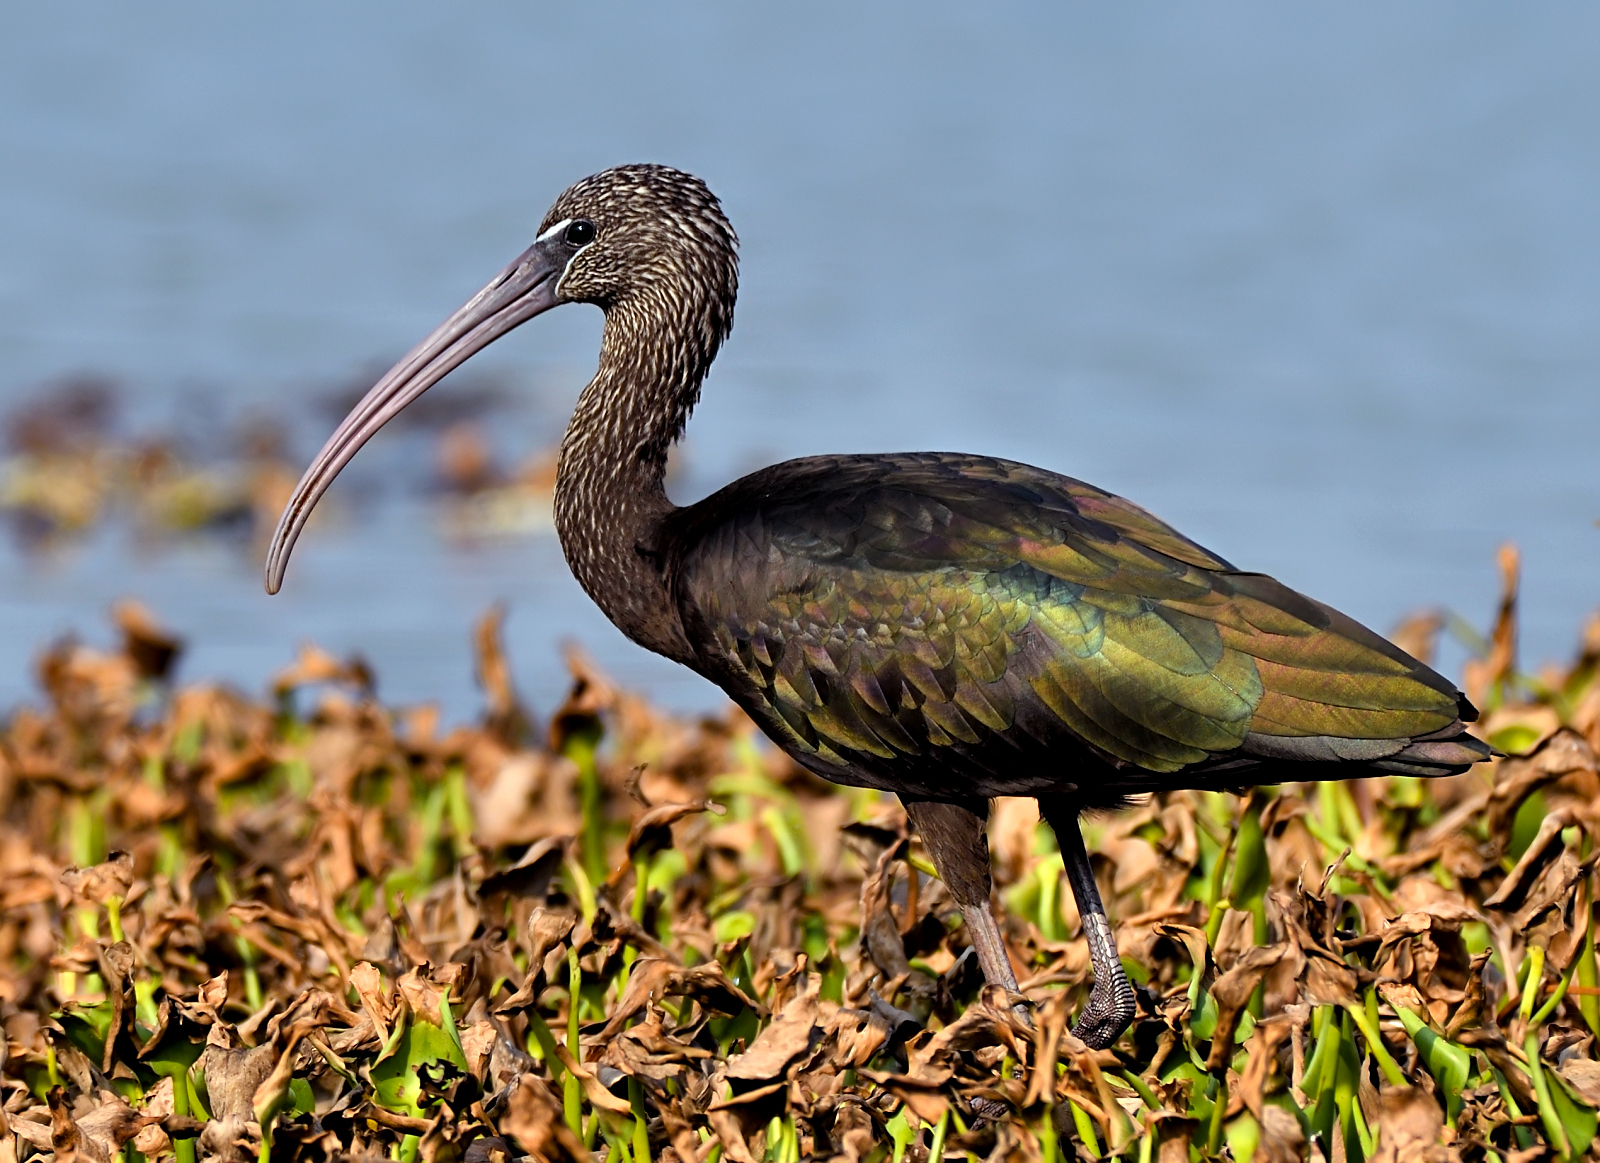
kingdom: Animalia
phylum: Chordata
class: Aves
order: Pelecaniformes
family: Threskiornithidae
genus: Plegadis
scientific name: Plegadis falcinellus
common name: Glossy ibis
